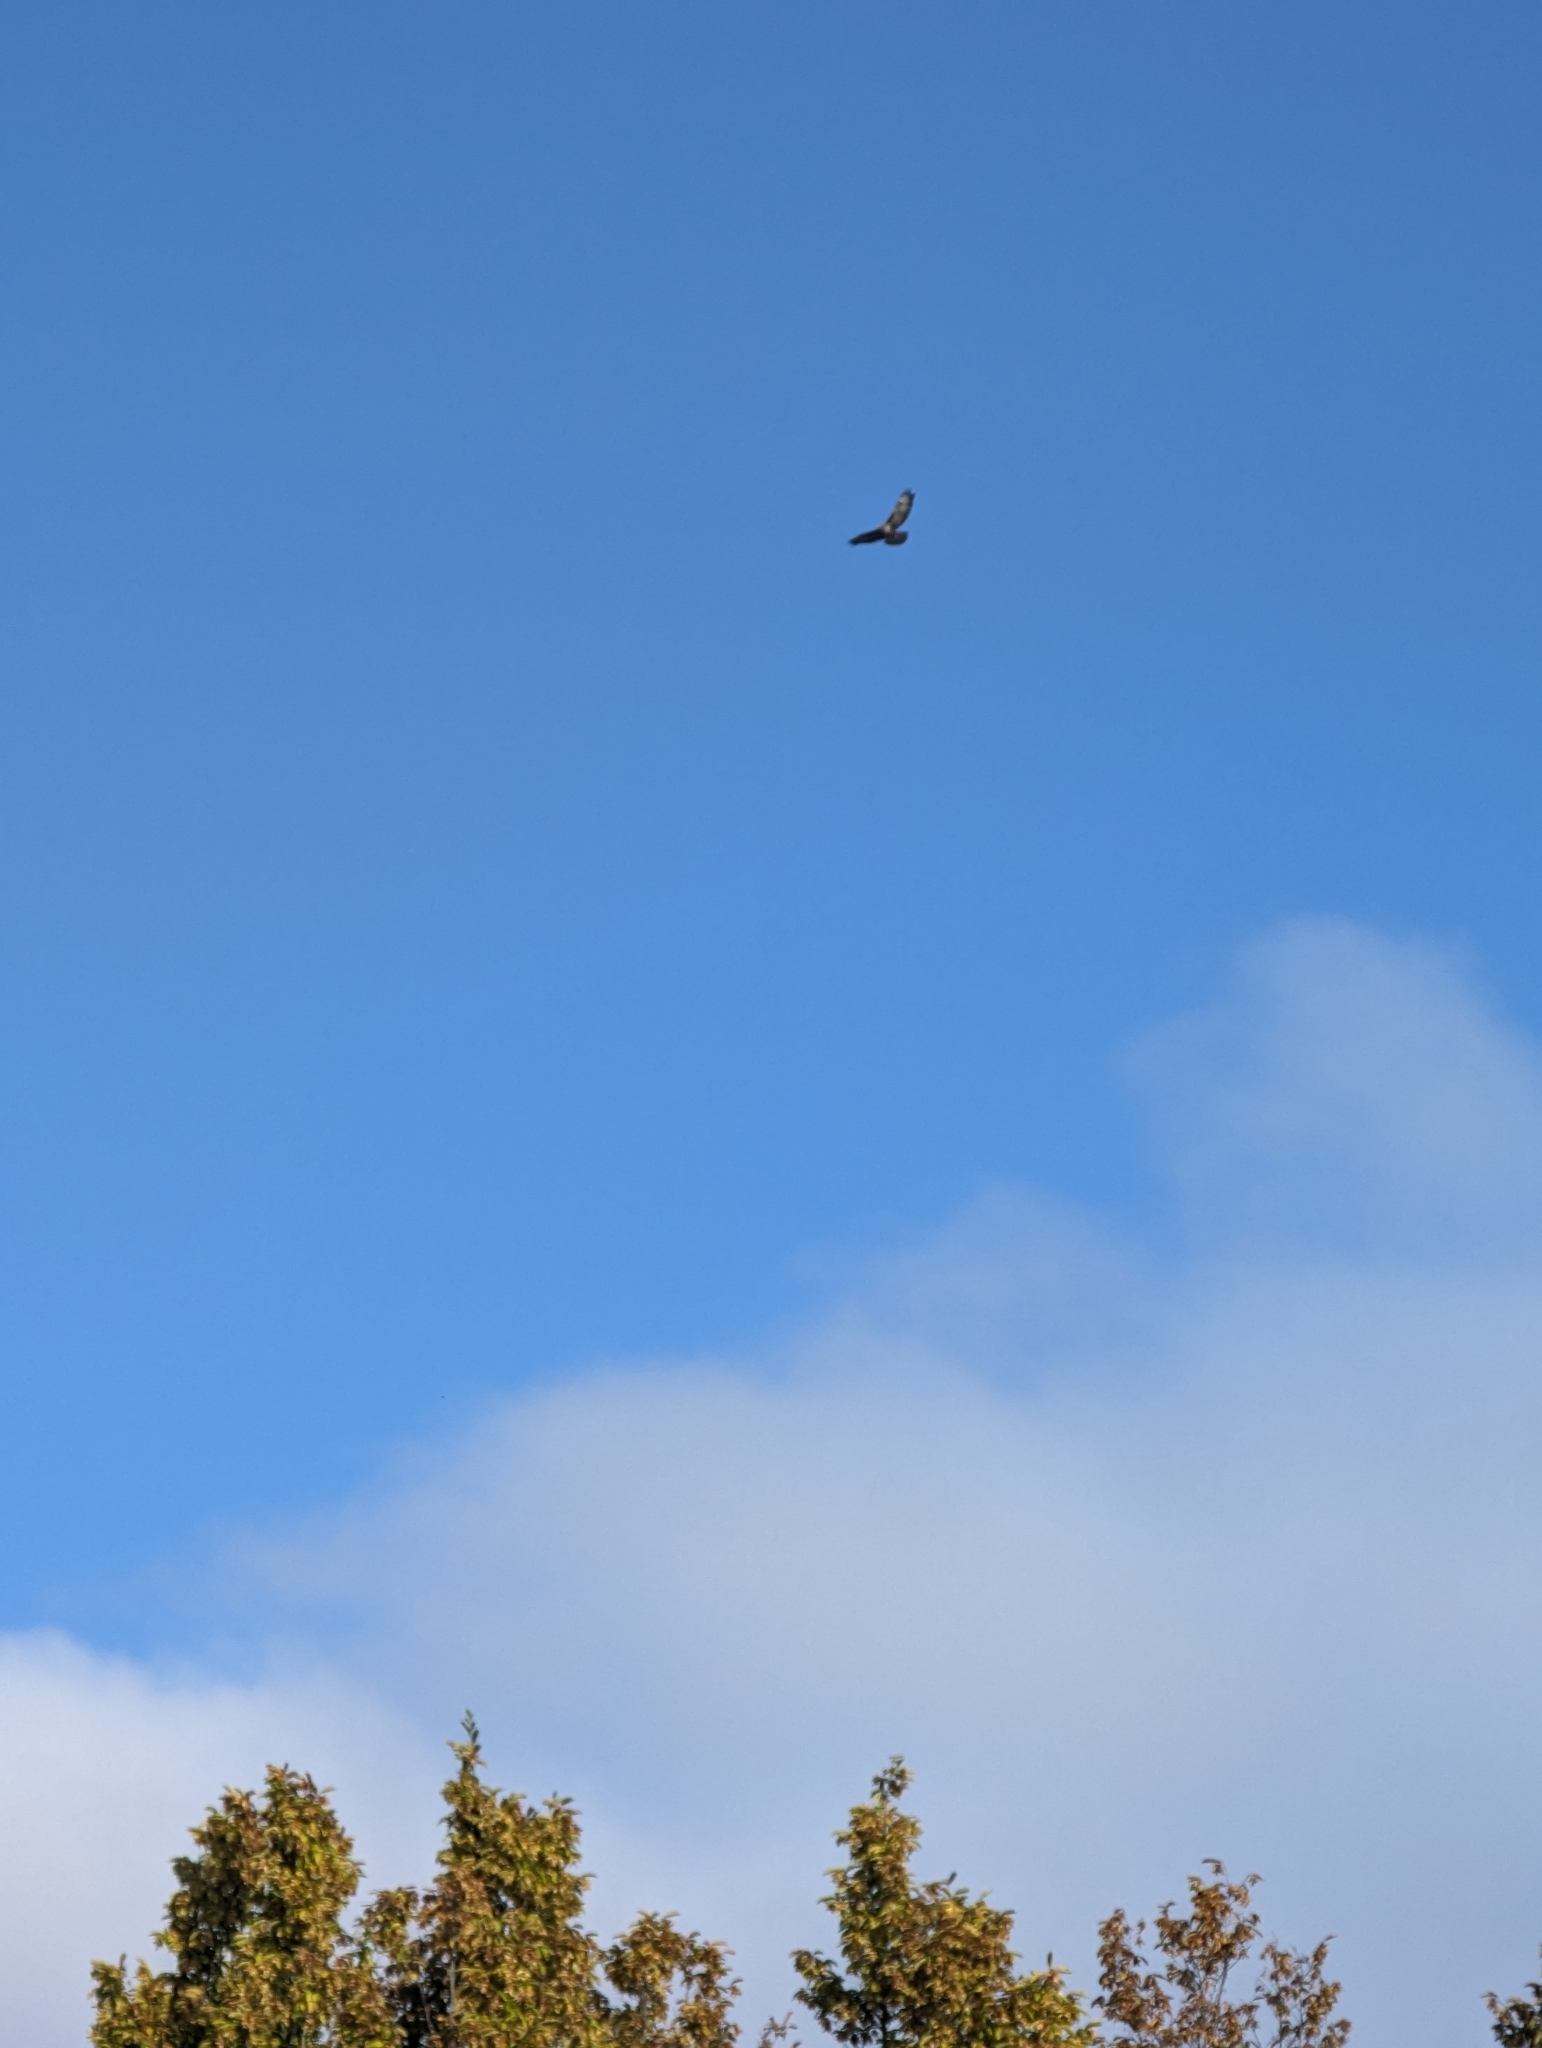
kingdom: Animalia
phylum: Chordata
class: Aves
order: Accipitriformes
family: Accipitridae
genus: Buteo
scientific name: Buteo buteo
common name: Common buzzard
